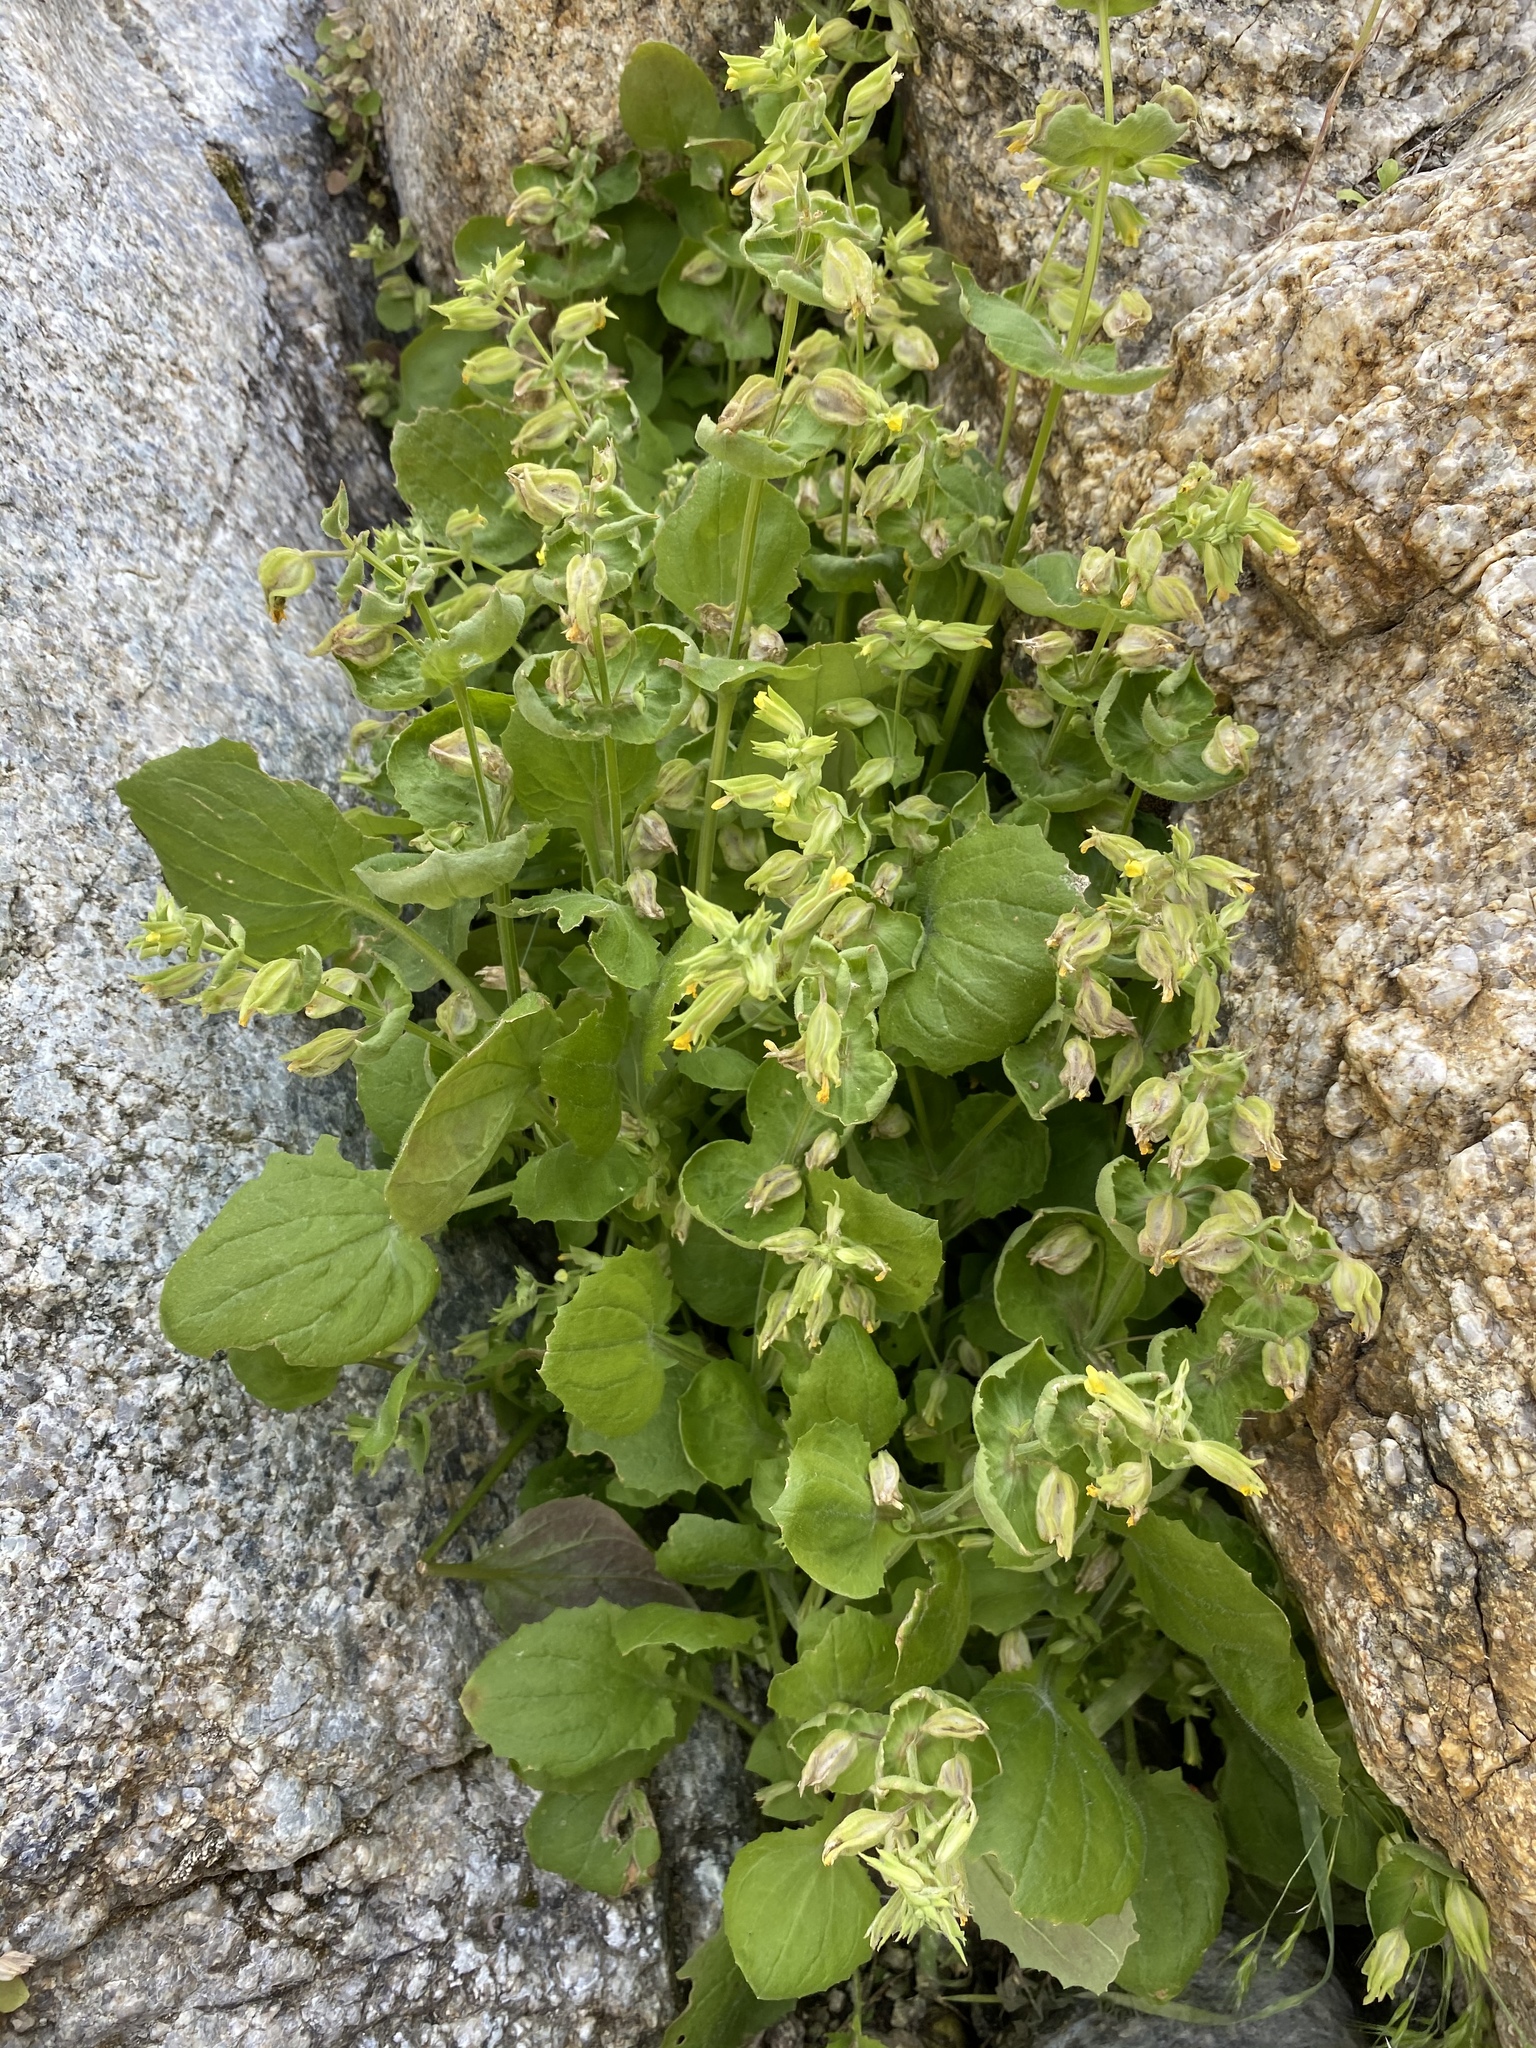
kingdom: Plantae
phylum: Tracheophyta
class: Magnoliopsida
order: Lamiales
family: Phrymaceae
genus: Erythranthe
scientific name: Erythranthe bergeri
